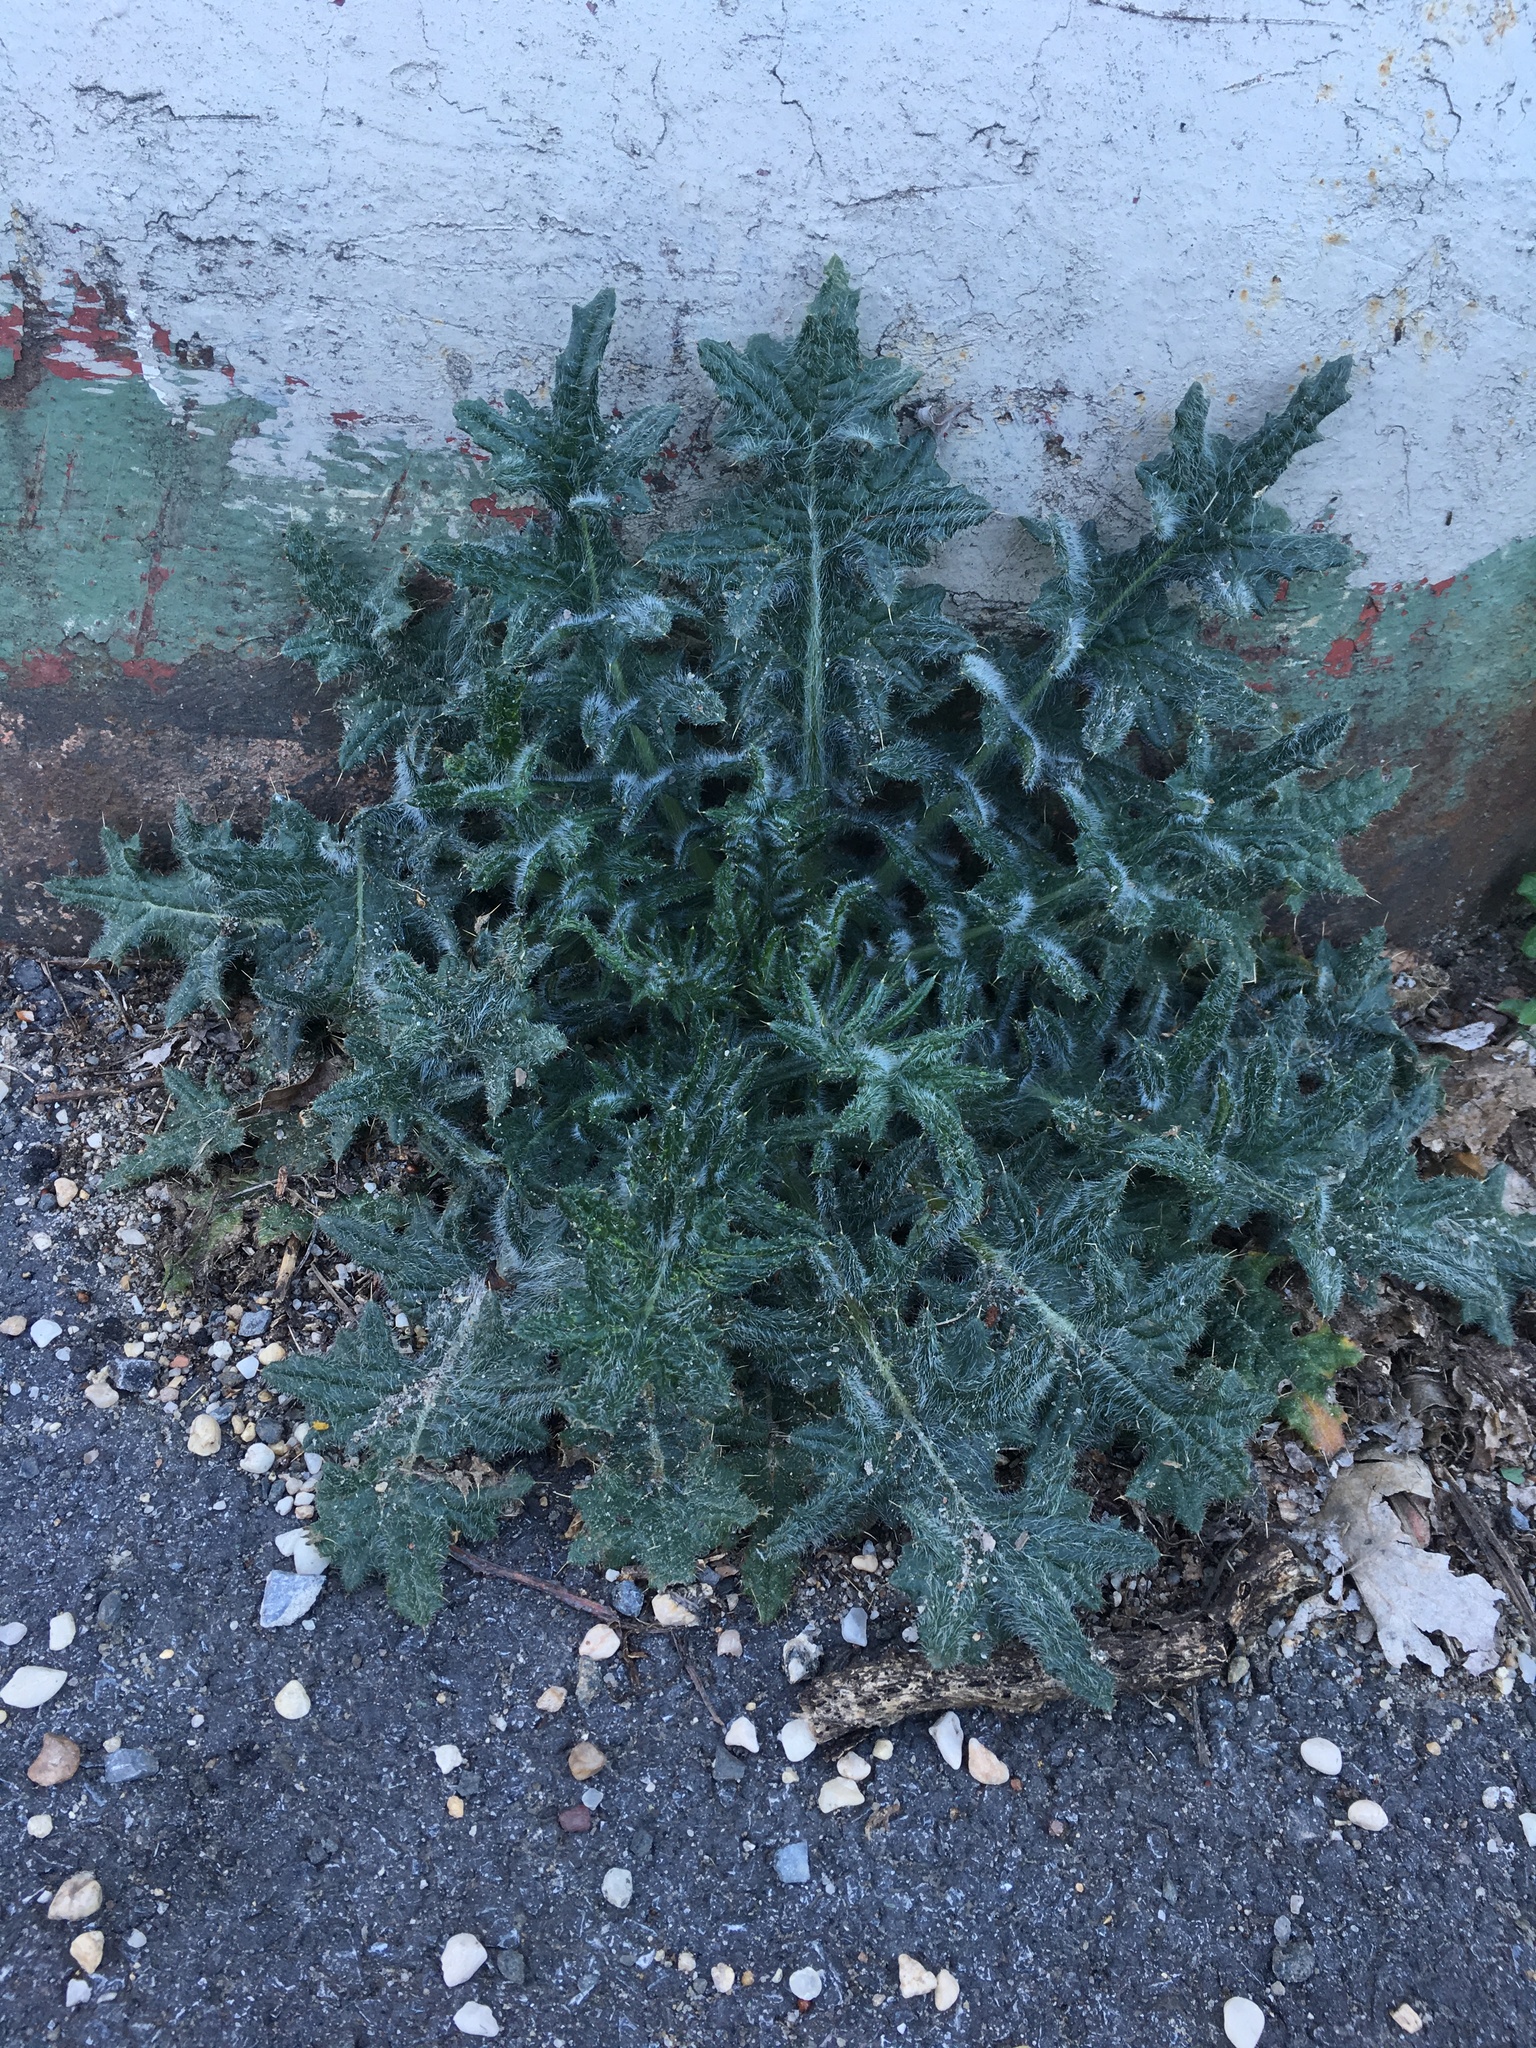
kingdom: Plantae
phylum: Tracheophyta
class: Magnoliopsida
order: Asterales
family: Asteraceae
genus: Cirsium
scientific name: Cirsium vulgare
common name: Bull thistle
